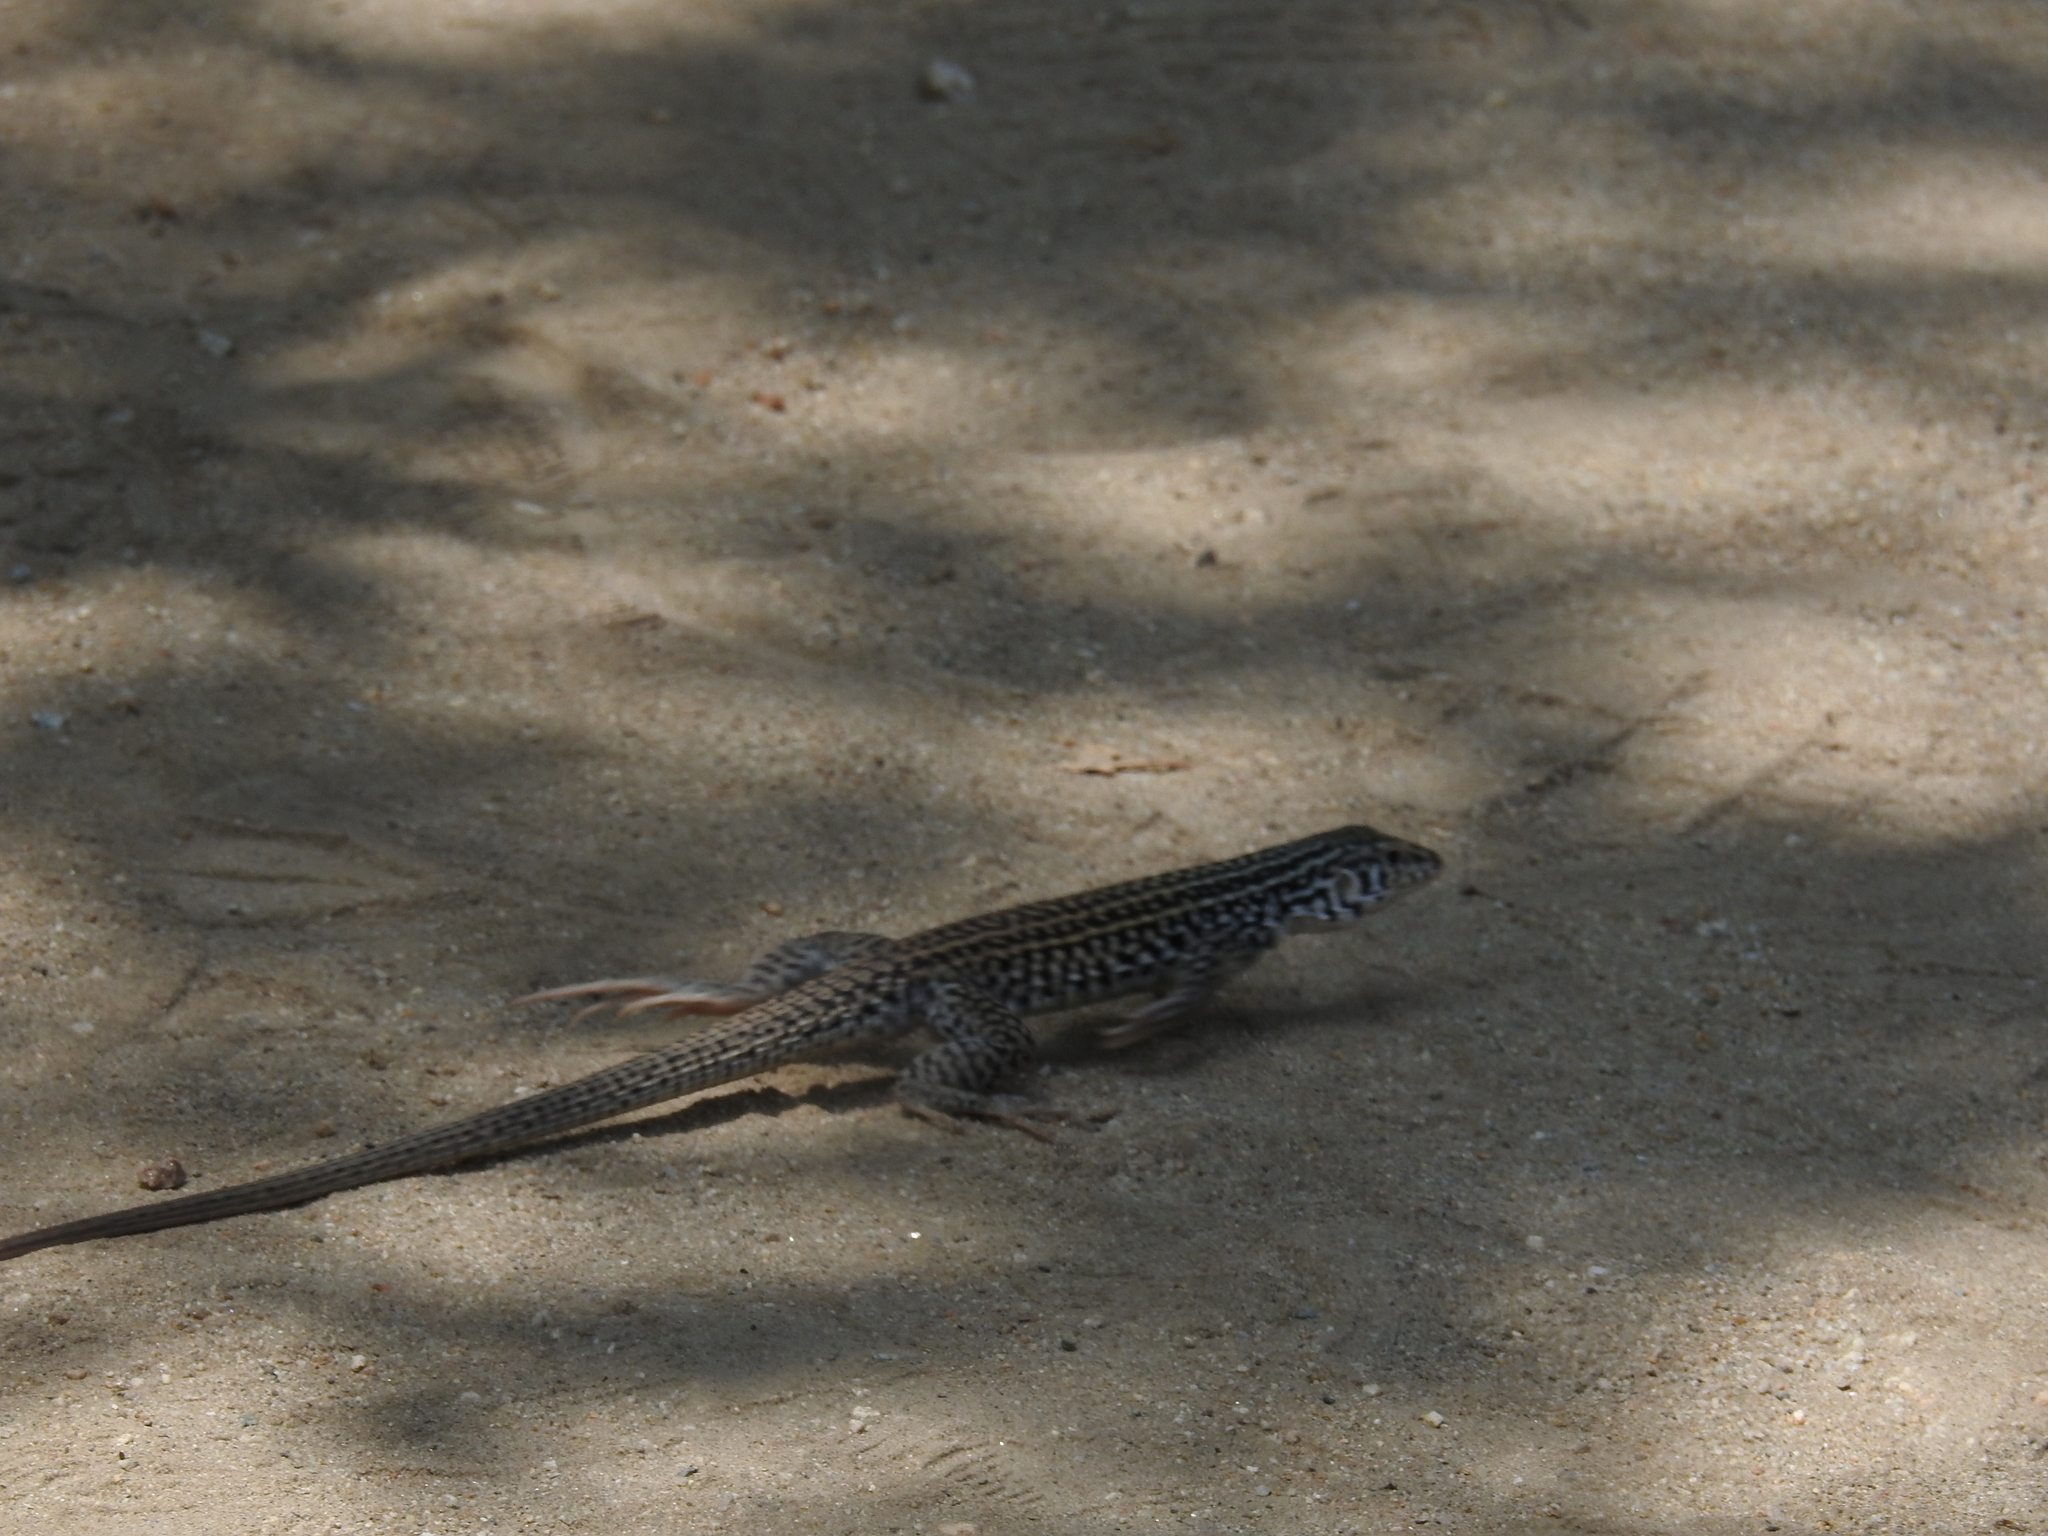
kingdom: Animalia
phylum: Chordata
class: Squamata
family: Teiidae
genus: Aspidoscelis
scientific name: Aspidoscelis tigris
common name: Tiger whiptail
